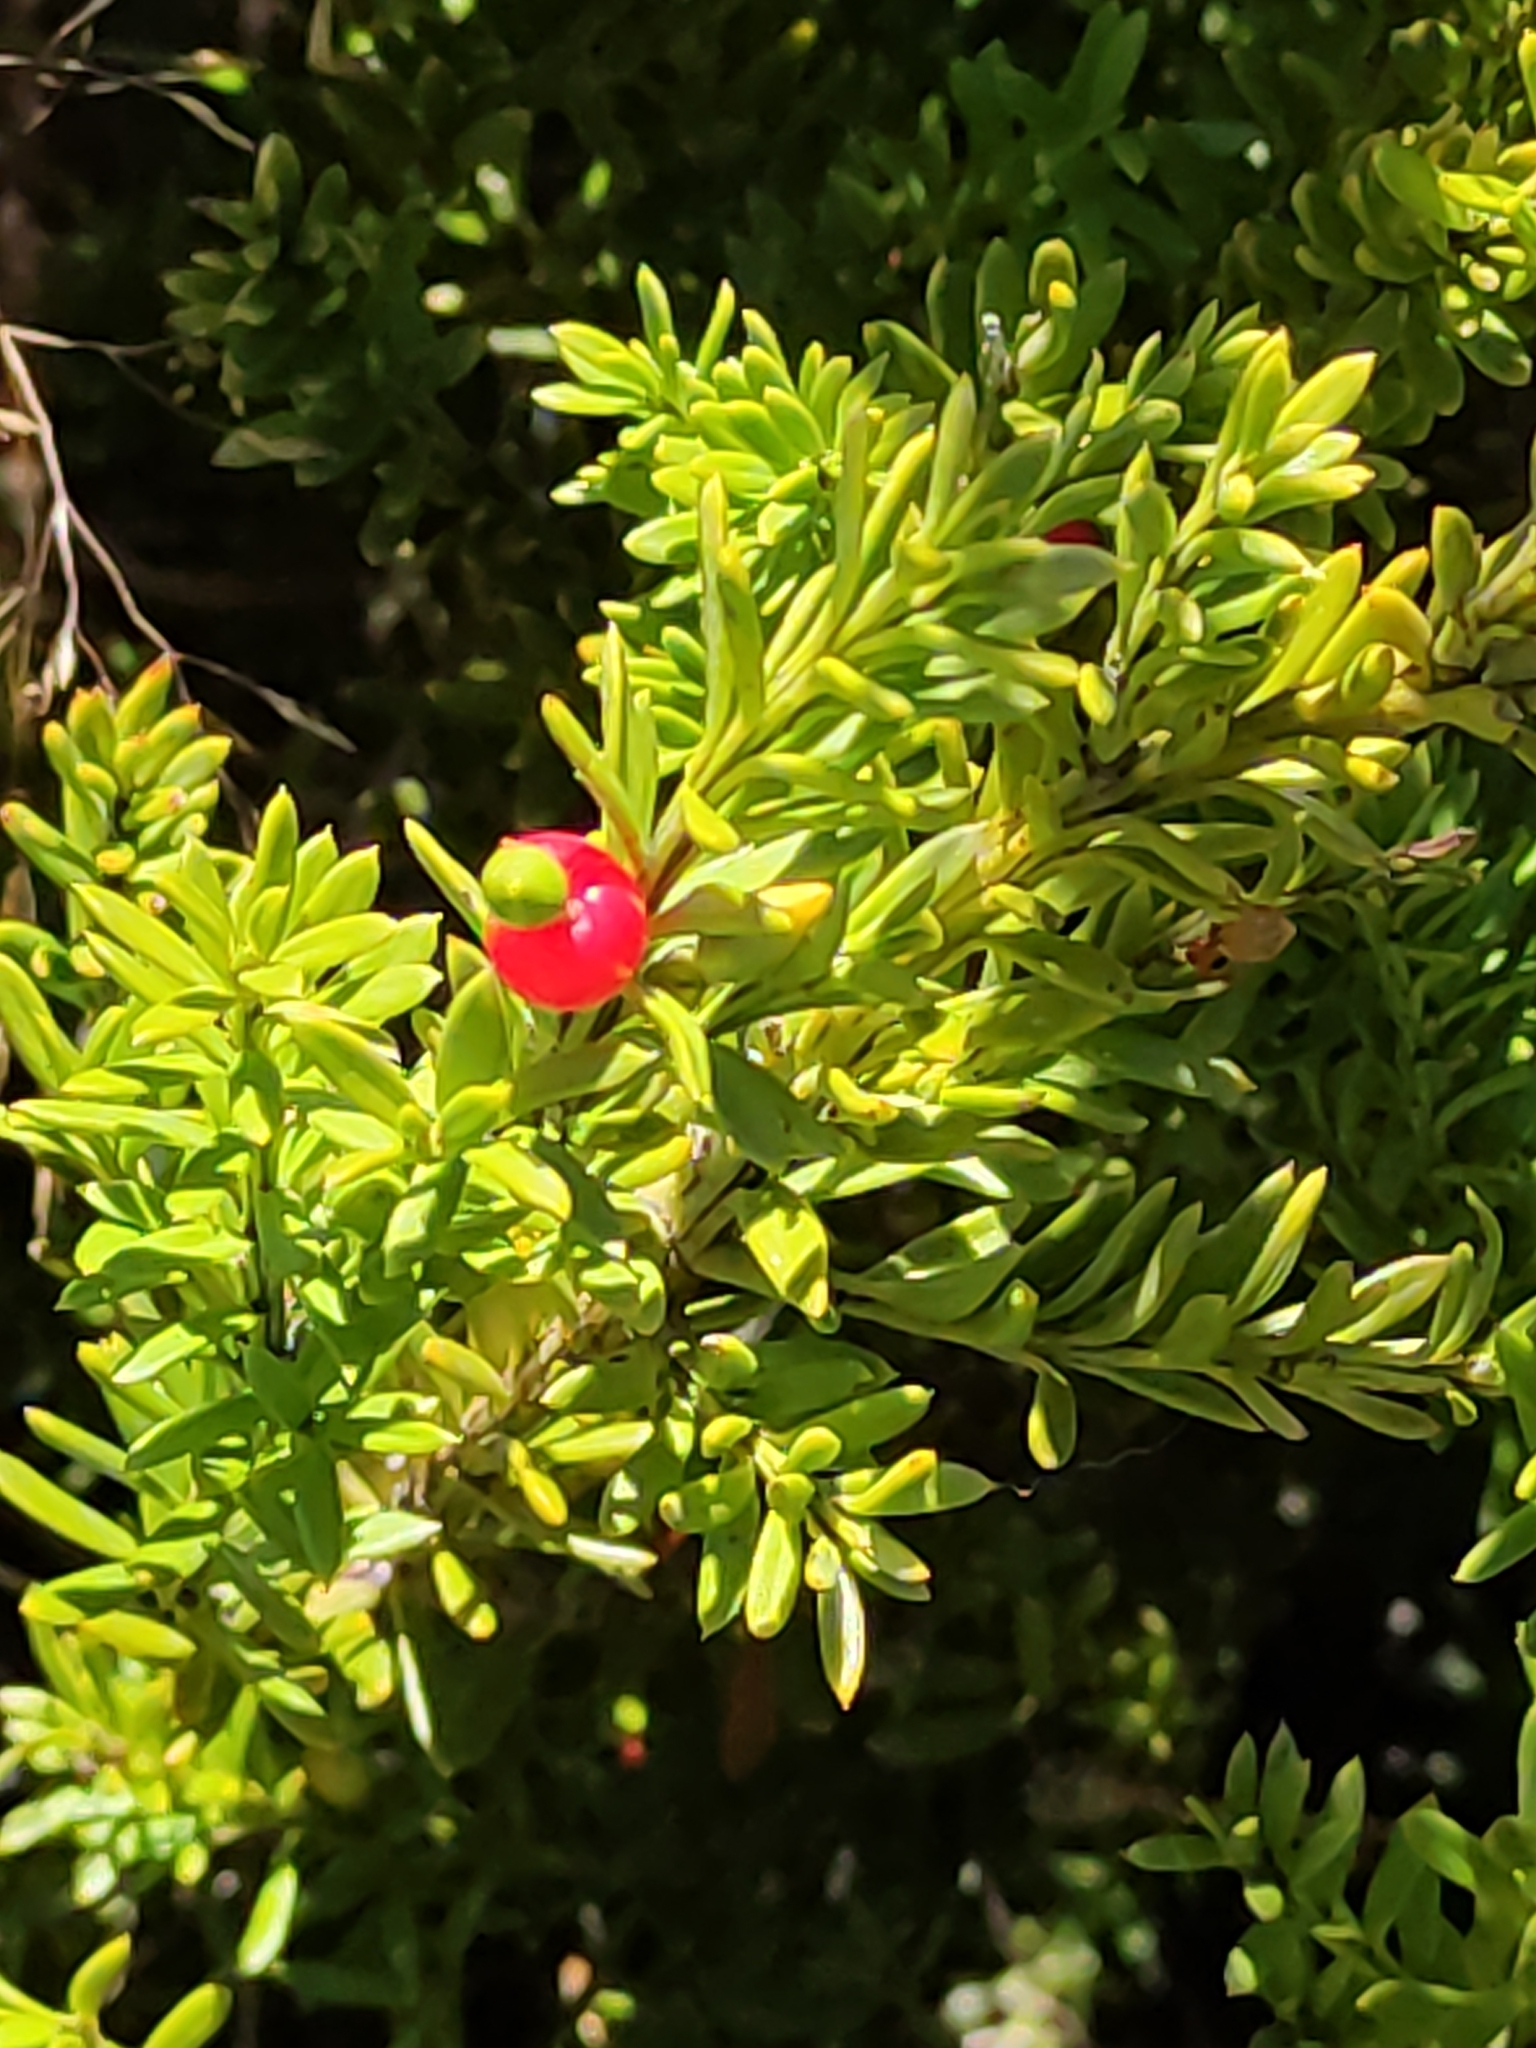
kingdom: Plantae
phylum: Tracheophyta
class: Pinopsida
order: Pinales
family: Podocarpaceae
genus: Podocarpus
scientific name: Podocarpus nivalis
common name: Alpine totara
